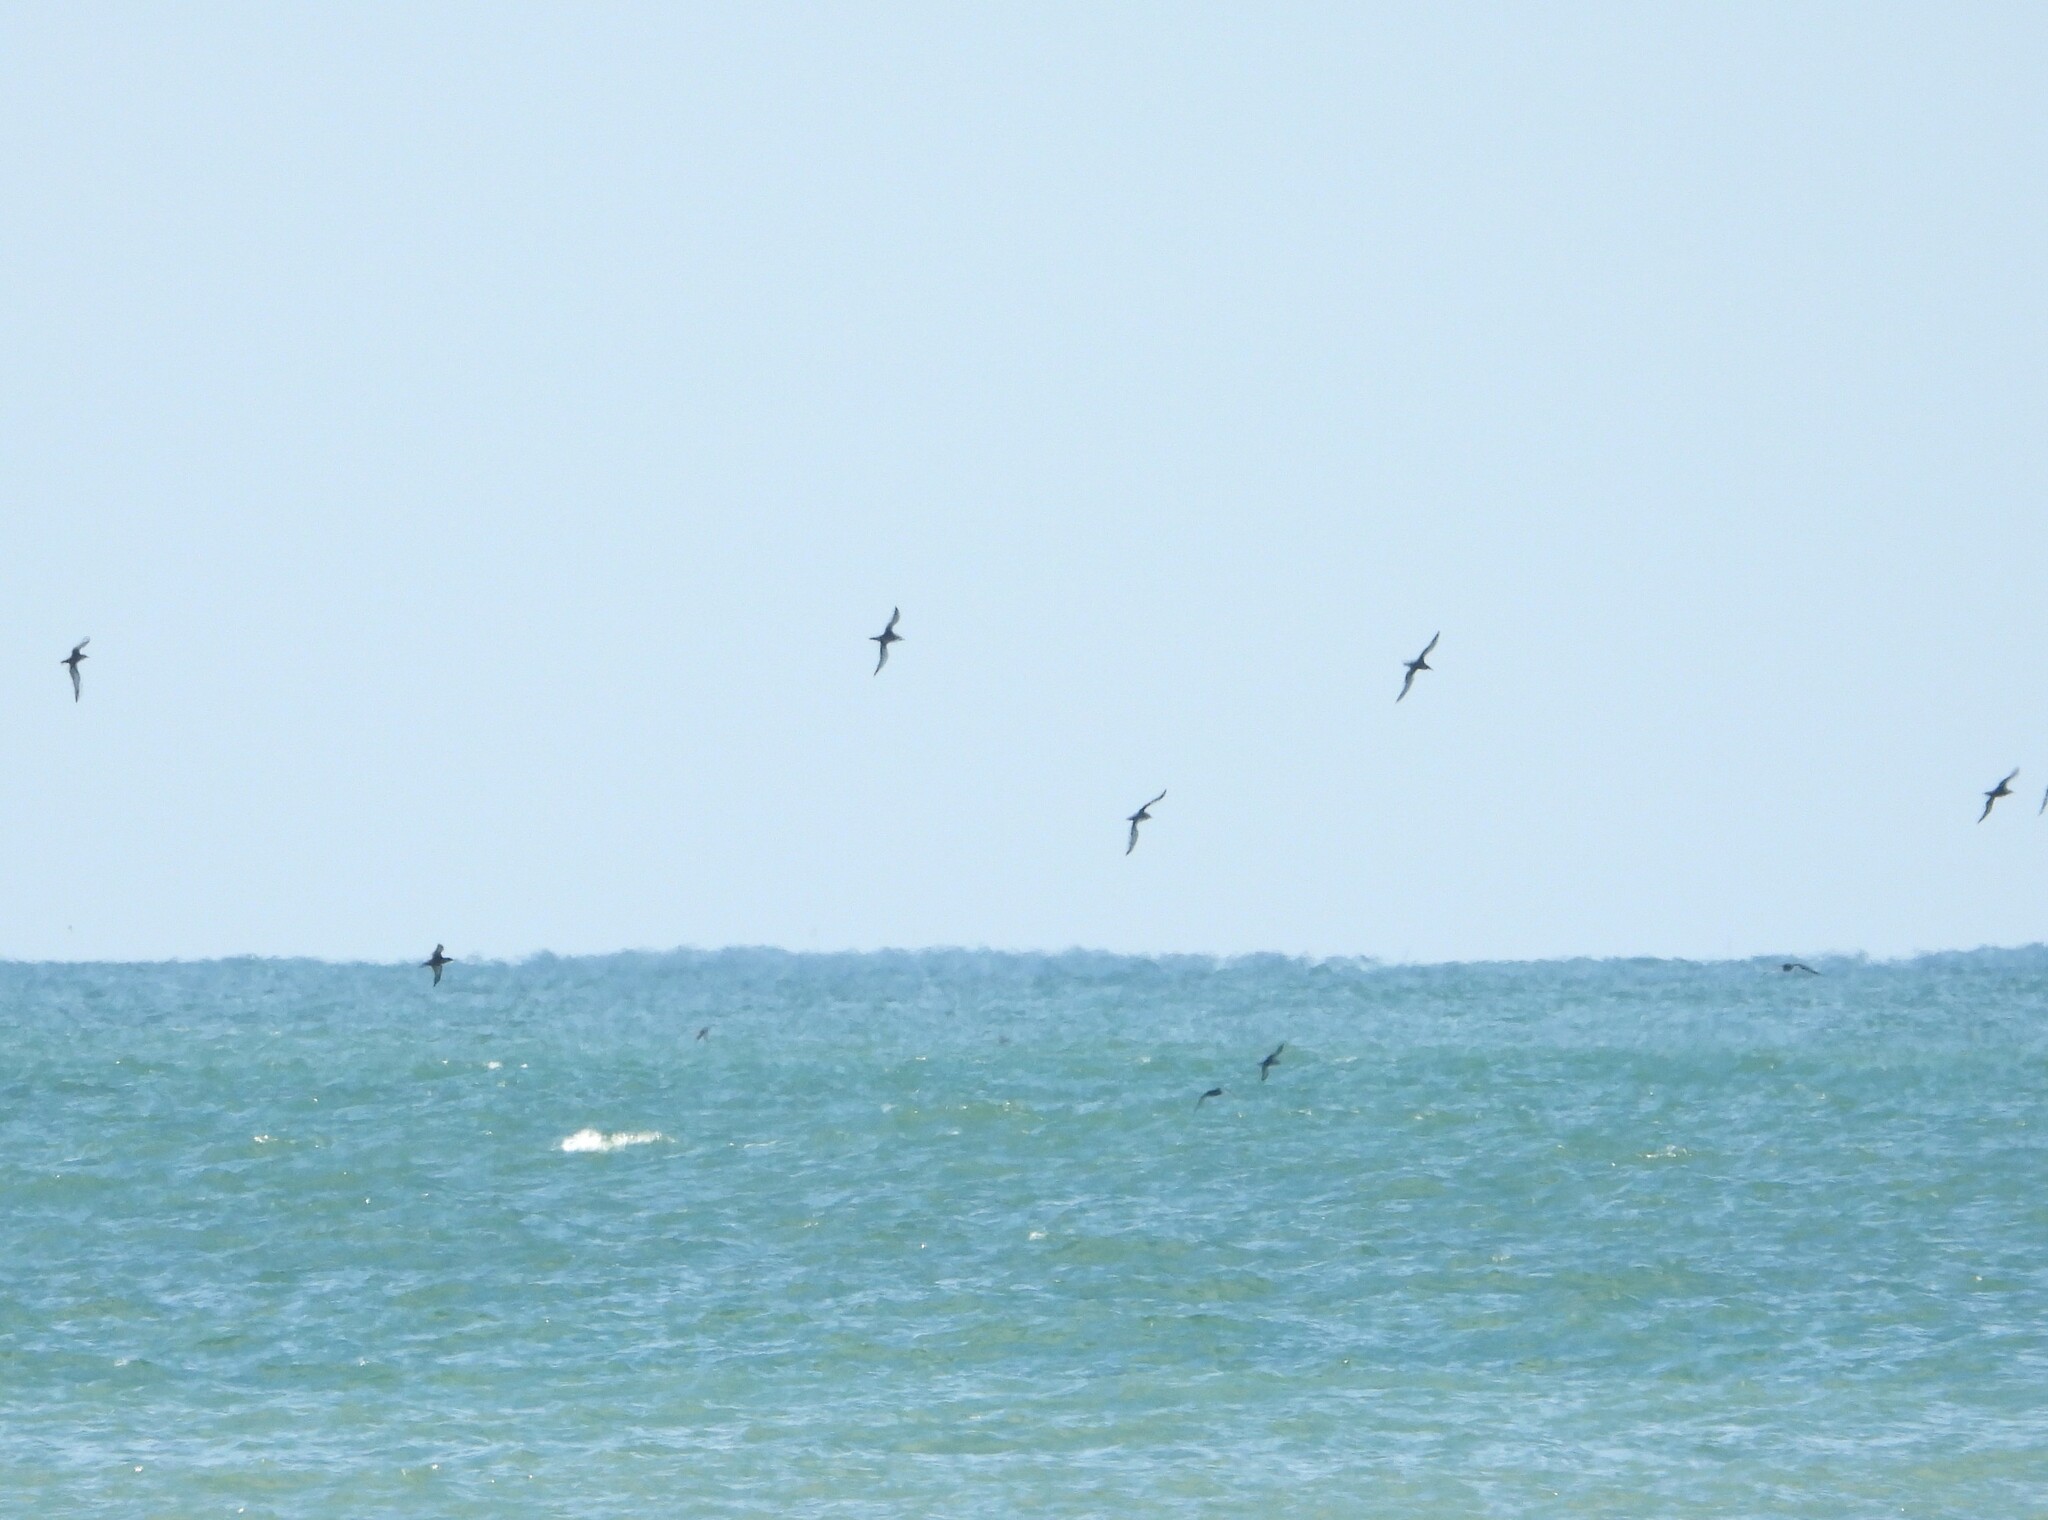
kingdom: Animalia
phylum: Chordata
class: Aves
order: Procellariiformes
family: Procellariidae
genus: Puffinus
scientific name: Puffinus griseus
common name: Sooty shearwater
